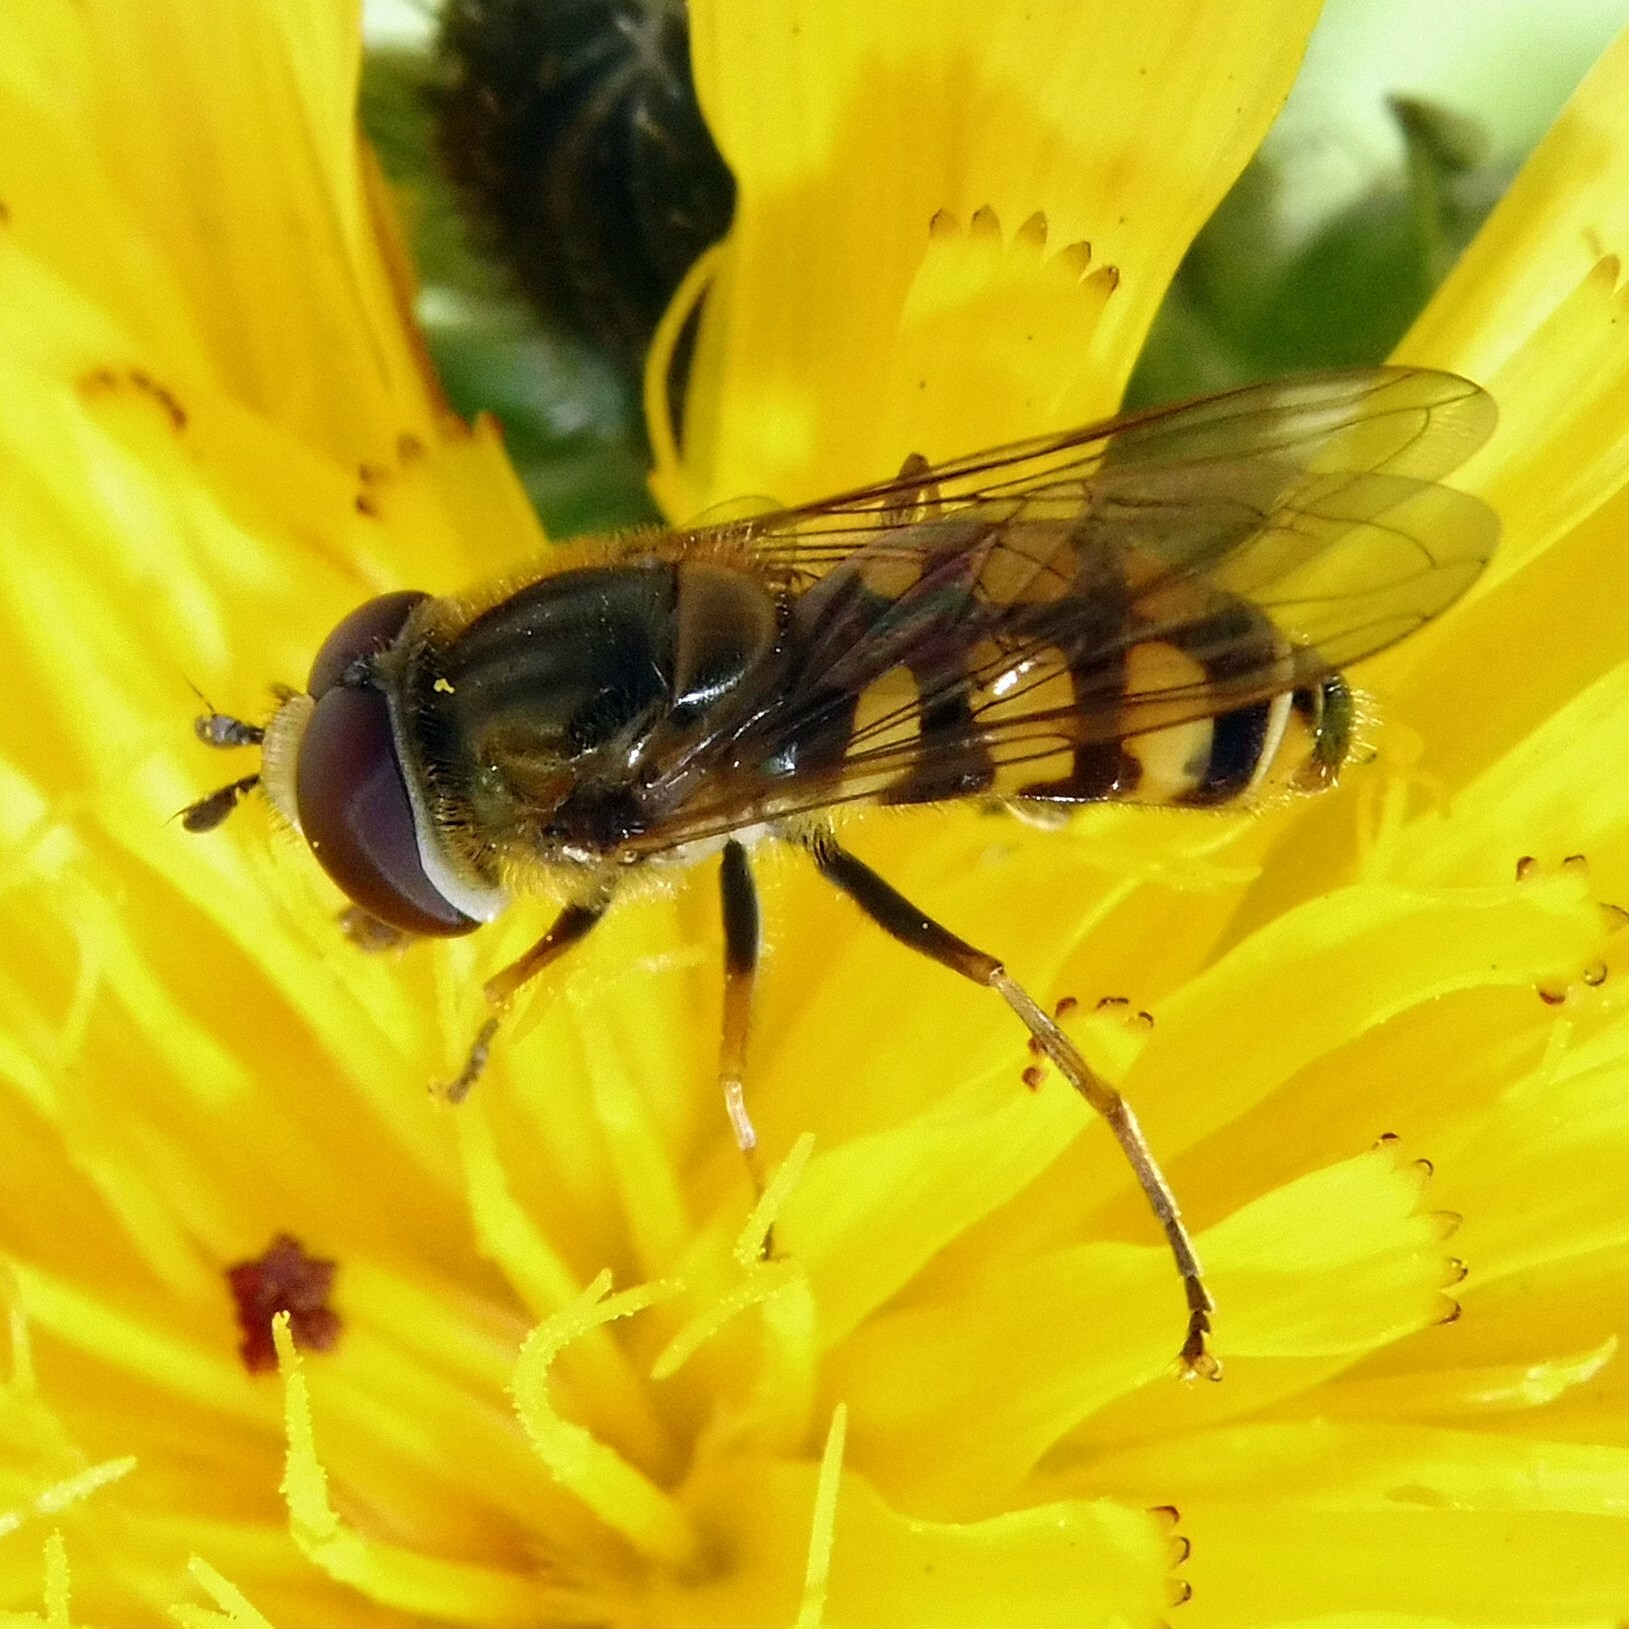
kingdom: Animalia
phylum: Arthropoda
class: Insecta
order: Diptera
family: Syrphidae
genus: Eupeodes
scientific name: Eupeodes corollae
